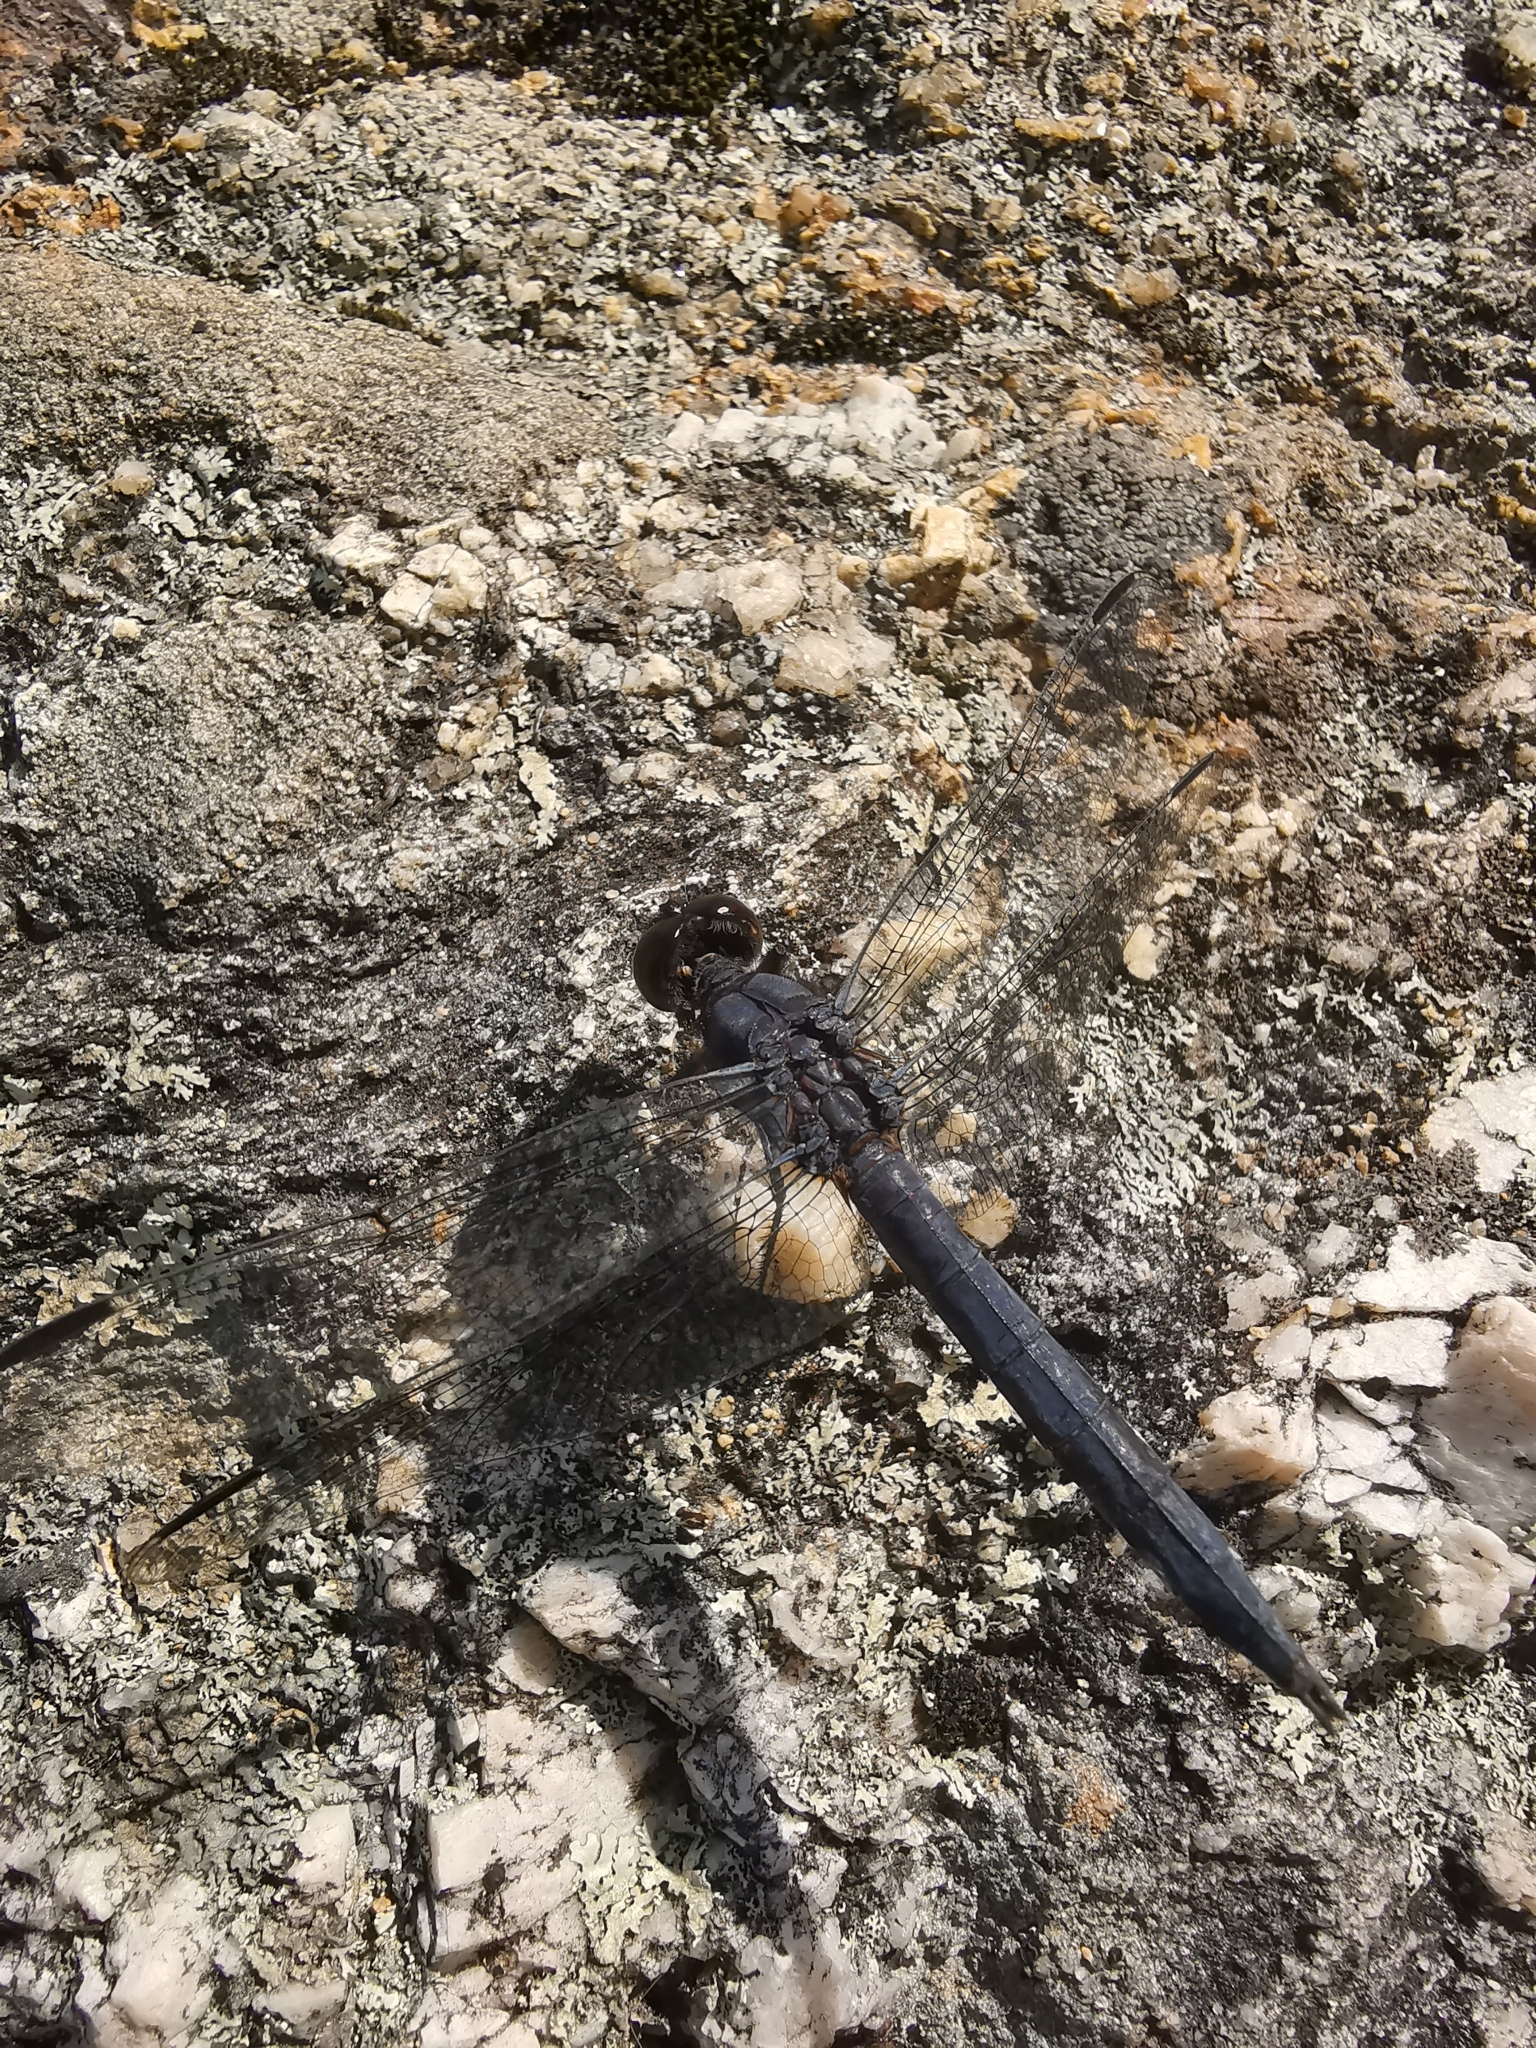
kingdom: Animalia
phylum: Arthropoda
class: Insecta
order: Odonata
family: Libellulidae
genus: Libellula
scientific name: Libellula incesta
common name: Slaty skimmer
